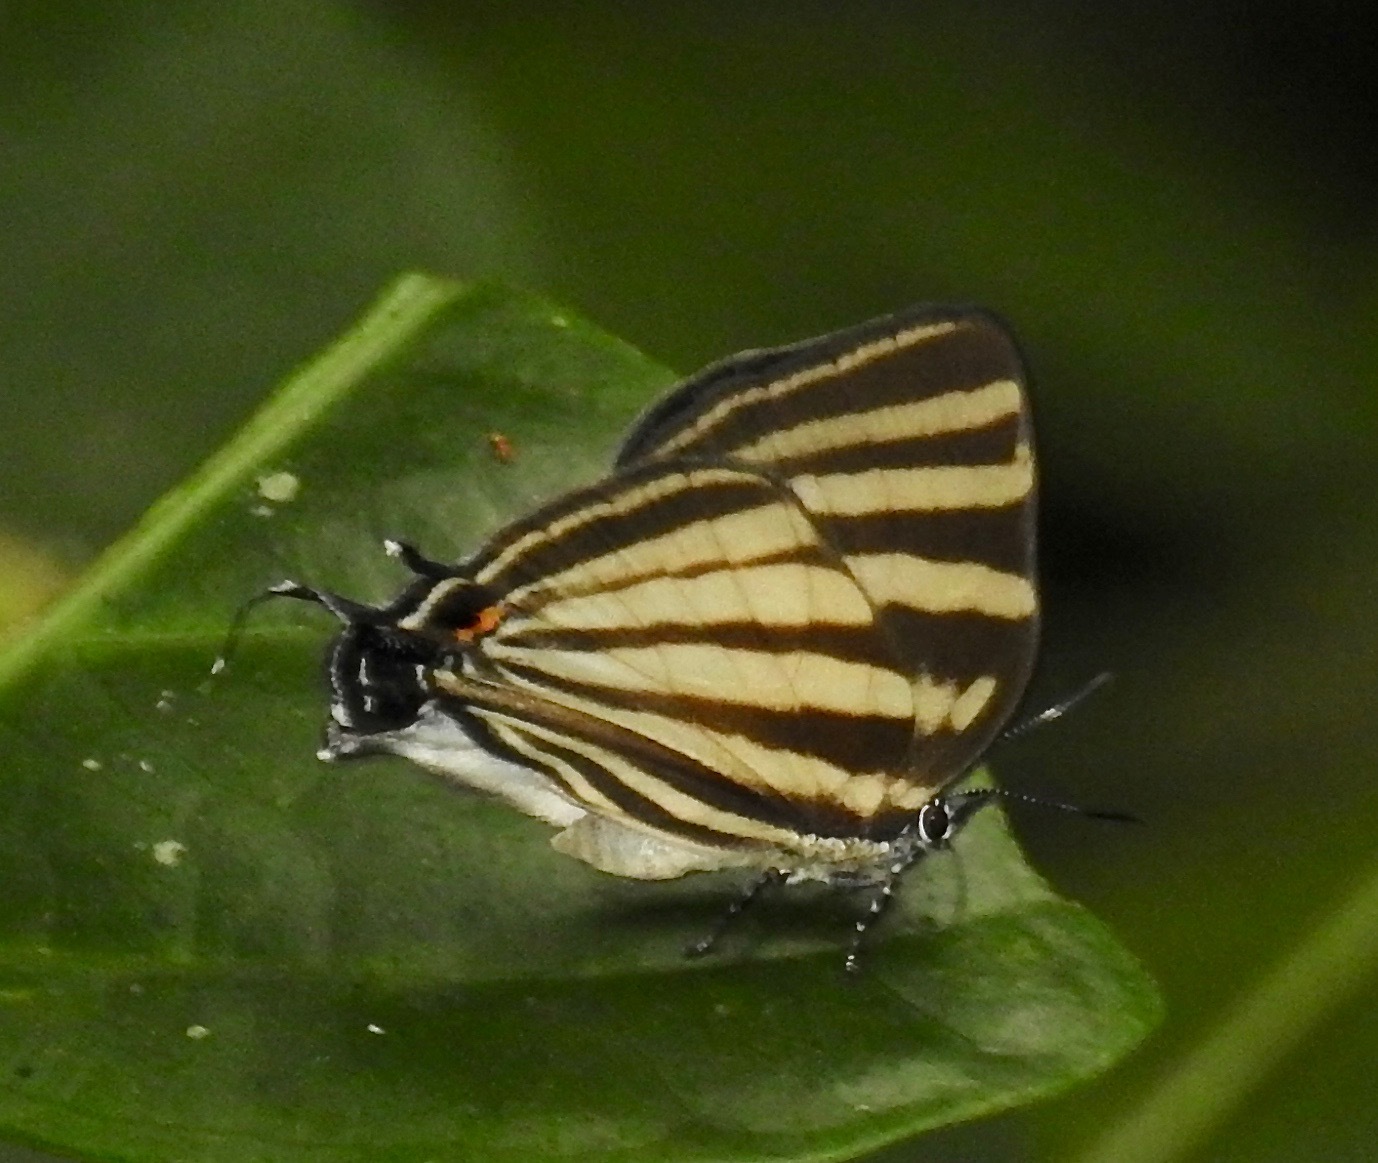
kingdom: Animalia
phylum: Arthropoda
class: Insecta
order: Lepidoptera
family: Lycaenidae
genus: Laothus
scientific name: Laothus gibberosa
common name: Great stripestreak
